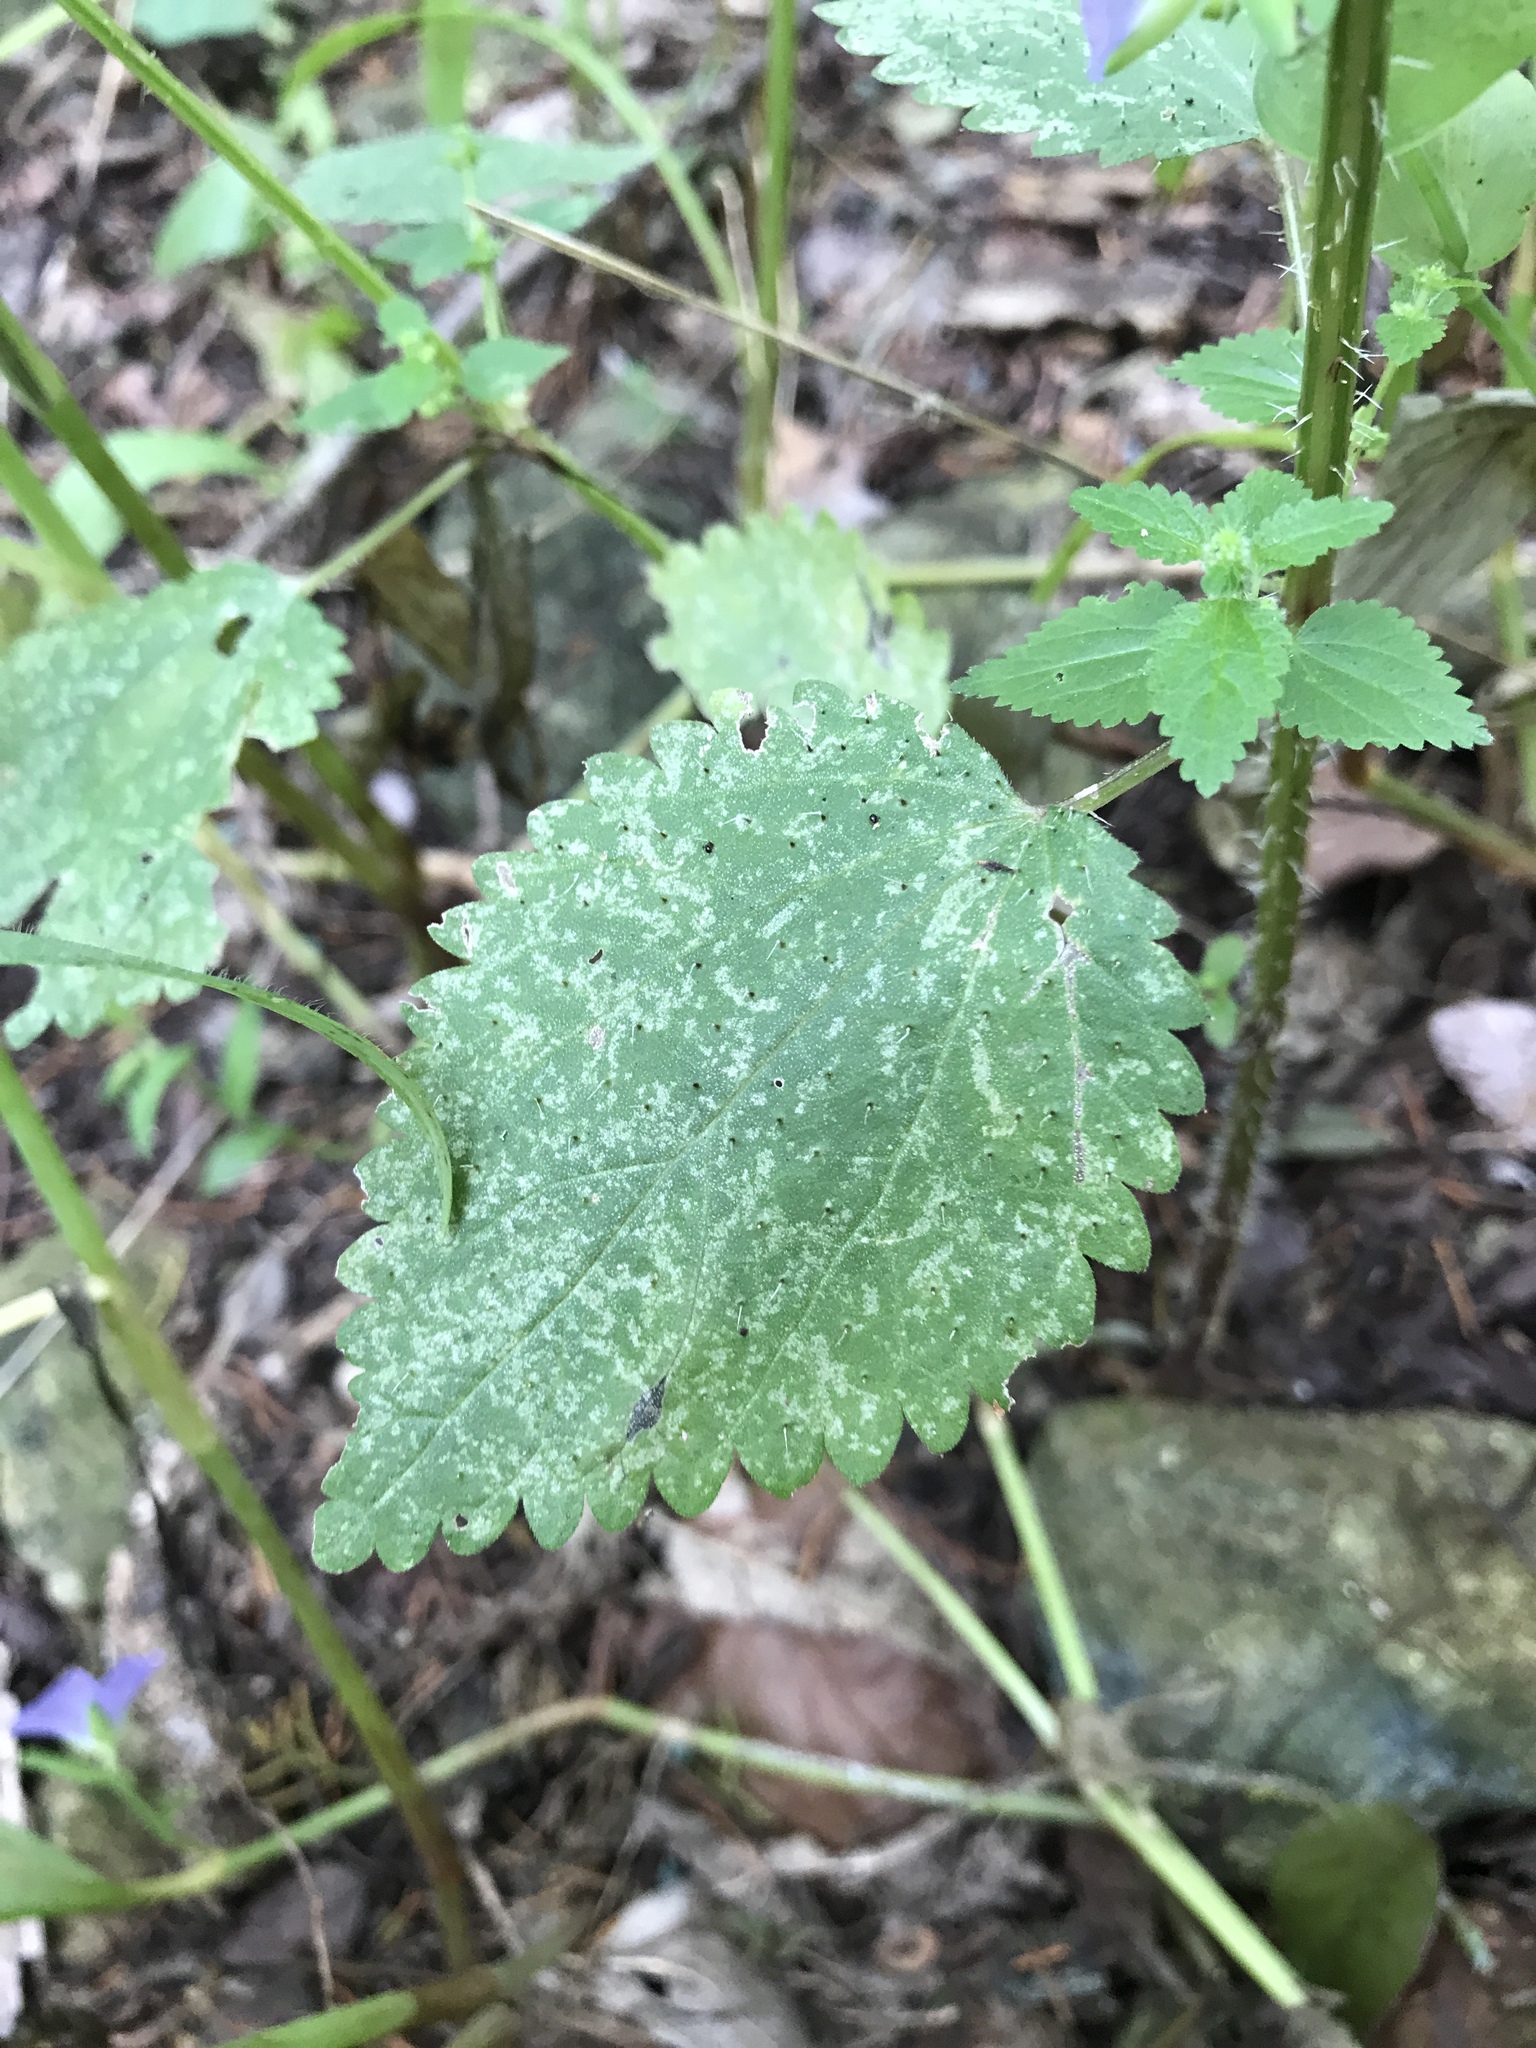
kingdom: Plantae
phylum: Tracheophyta
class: Magnoliopsida
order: Rosales
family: Urticaceae
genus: Urtica
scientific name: Urtica chamaedryoides
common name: Heart-leaf nettle
